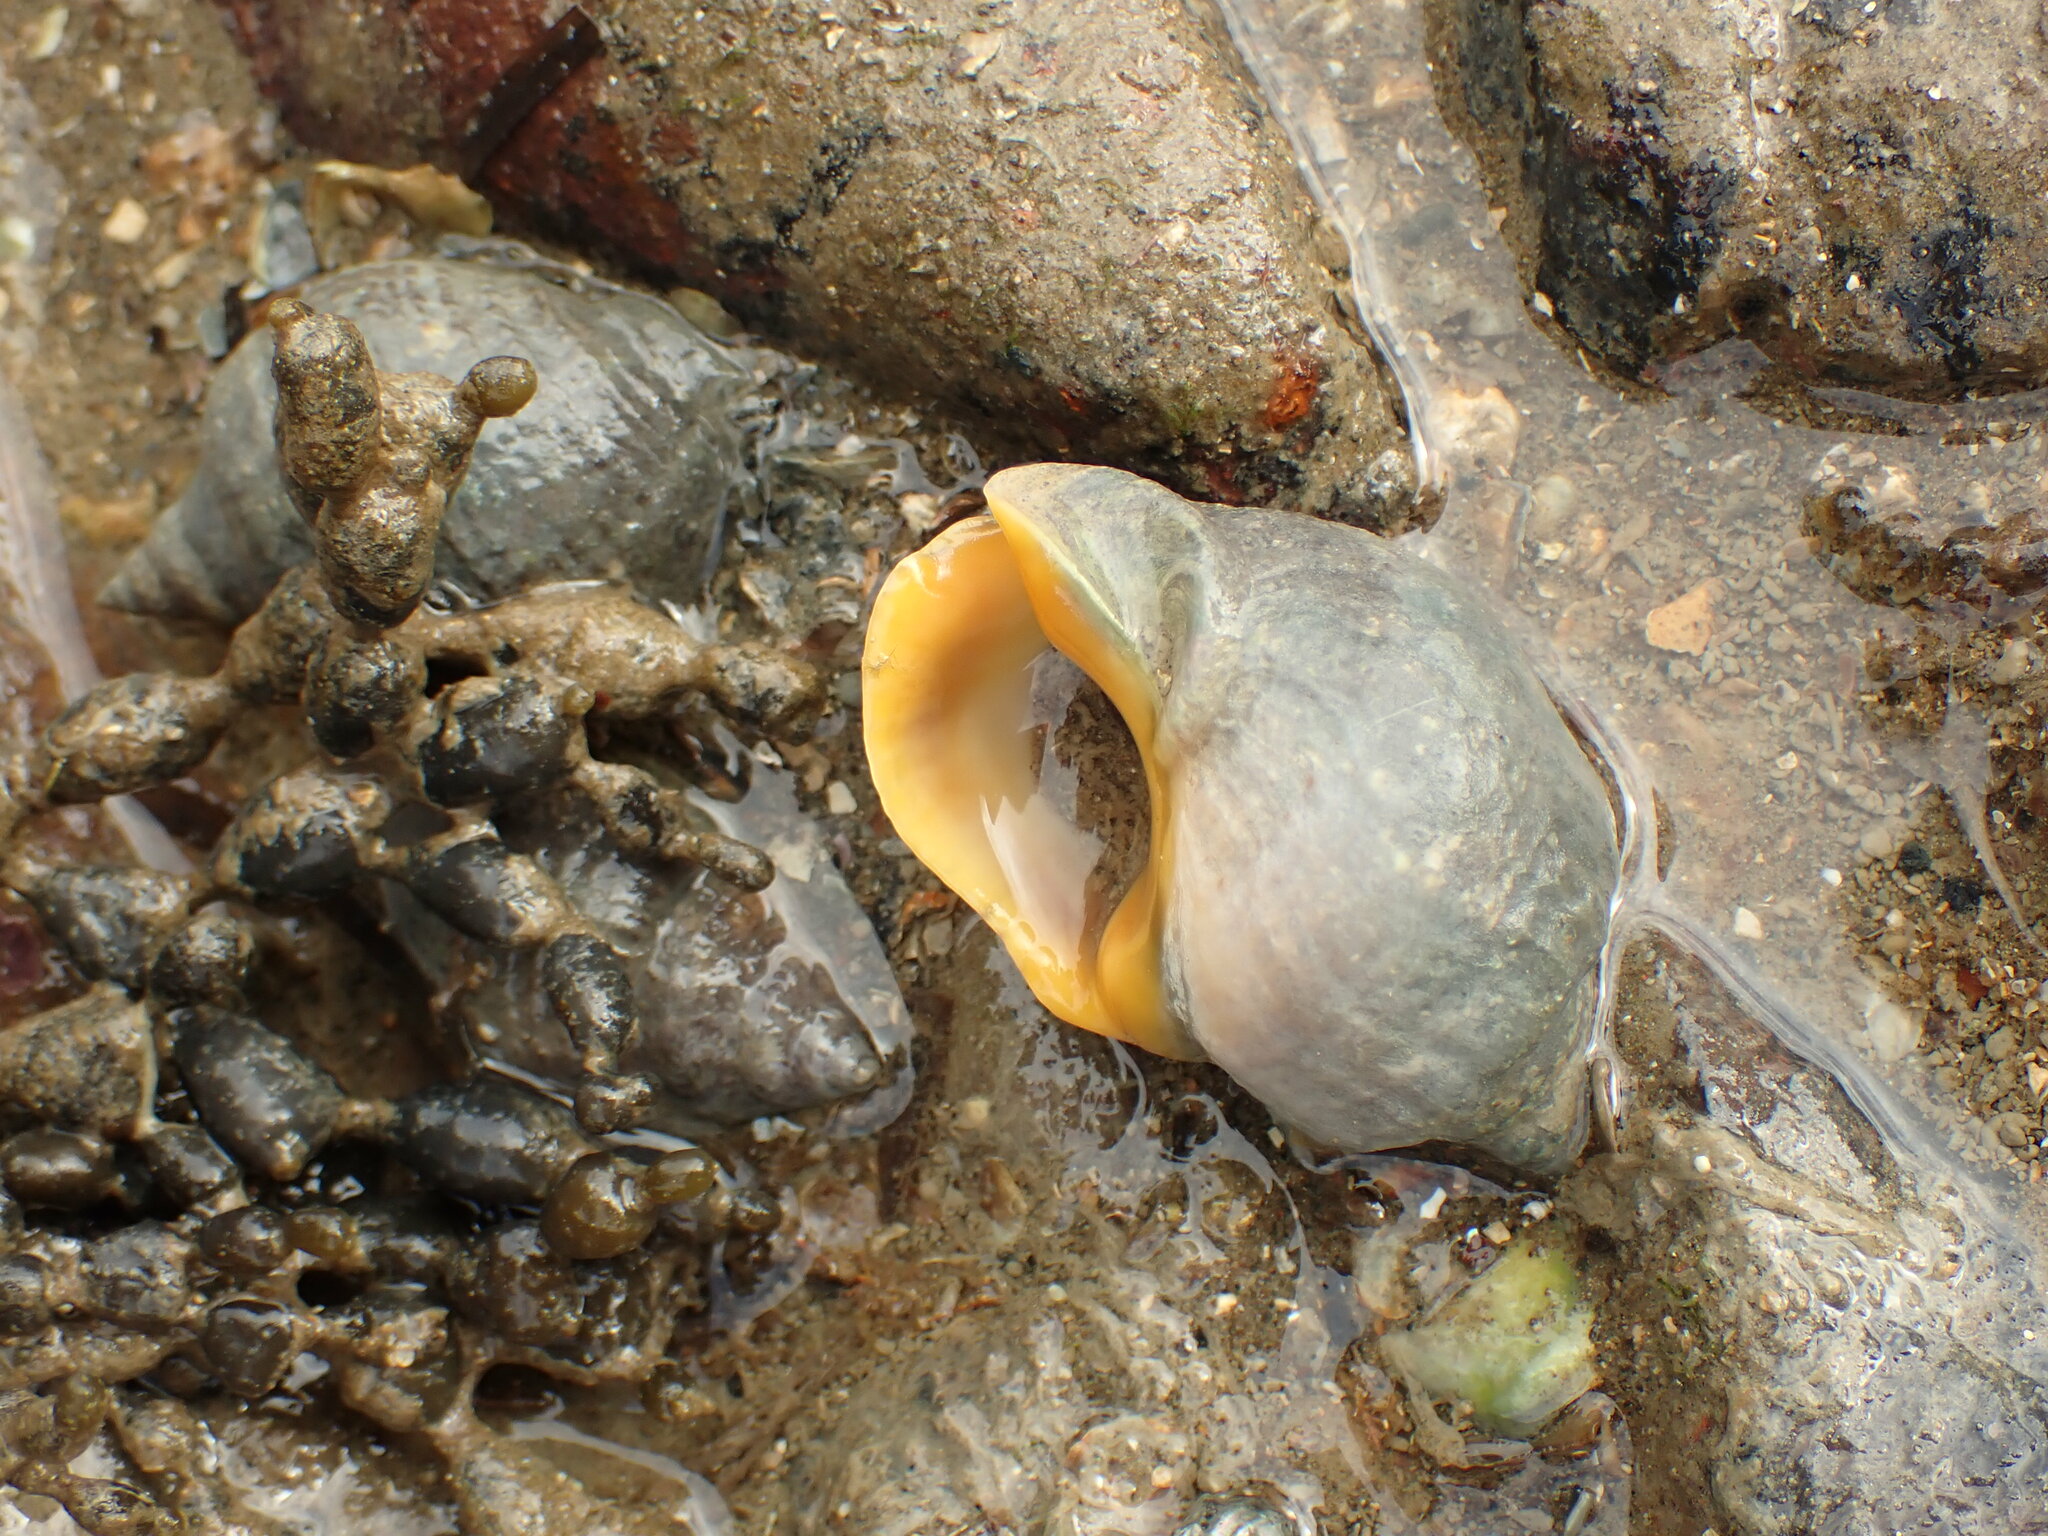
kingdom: Animalia
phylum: Mollusca
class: Gastropoda
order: Neogastropoda
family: Cominellidae
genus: Cominella
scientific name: Cominella adspersa
